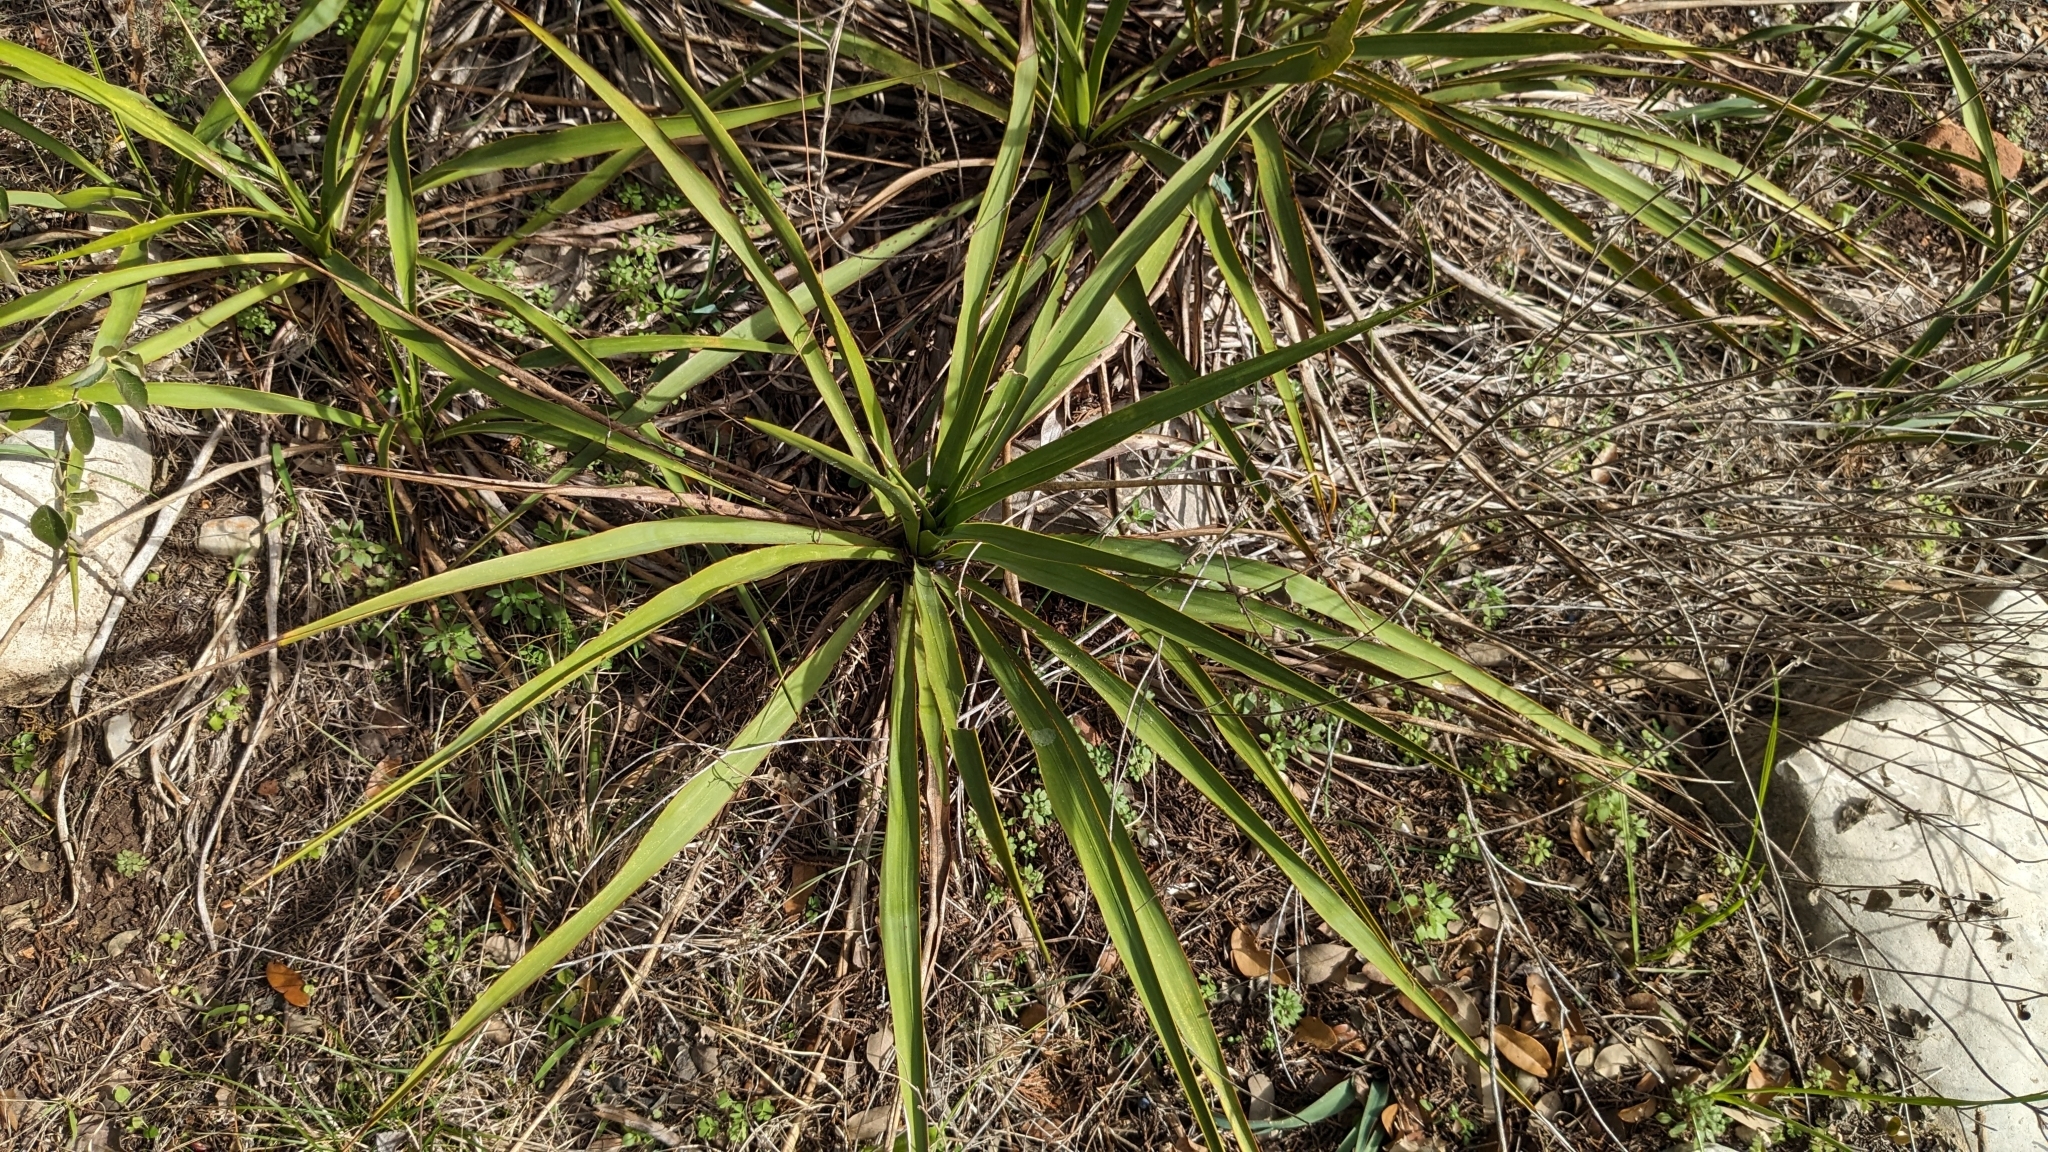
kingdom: Plantae
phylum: Tracheophyta
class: Liliopsida
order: Asparagales
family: Asparagaceae
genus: Yucca
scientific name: Yucca rupicola
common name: Twisted-leaf spanish-dagger
